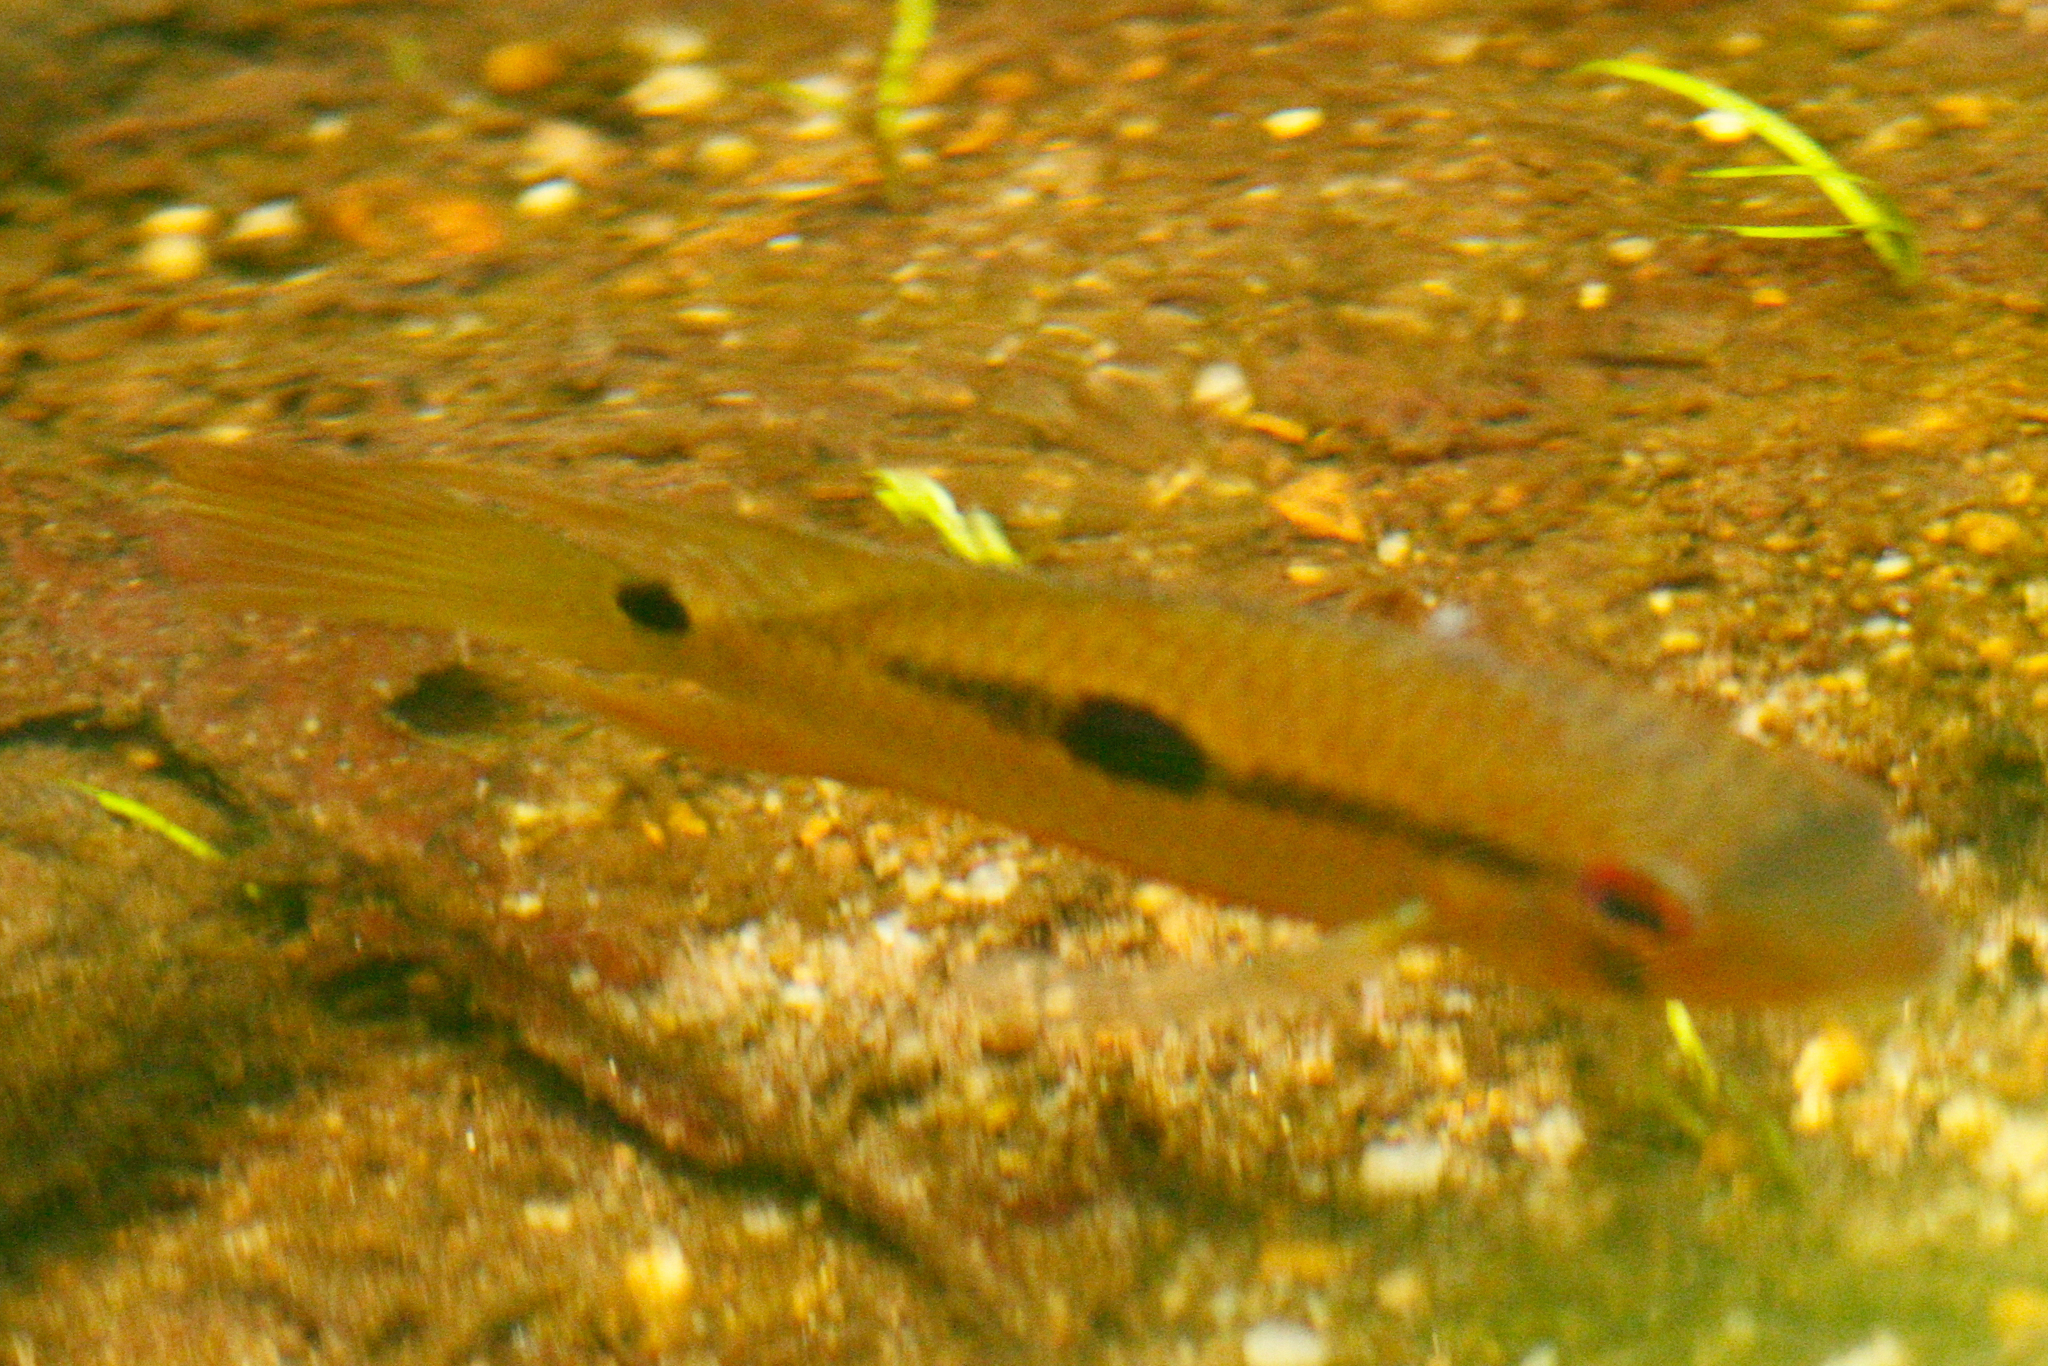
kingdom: Animalia
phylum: Chordata
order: Perciformes
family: Cichlidae
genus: Krobia
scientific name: Krobia guianensis
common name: Patwa
